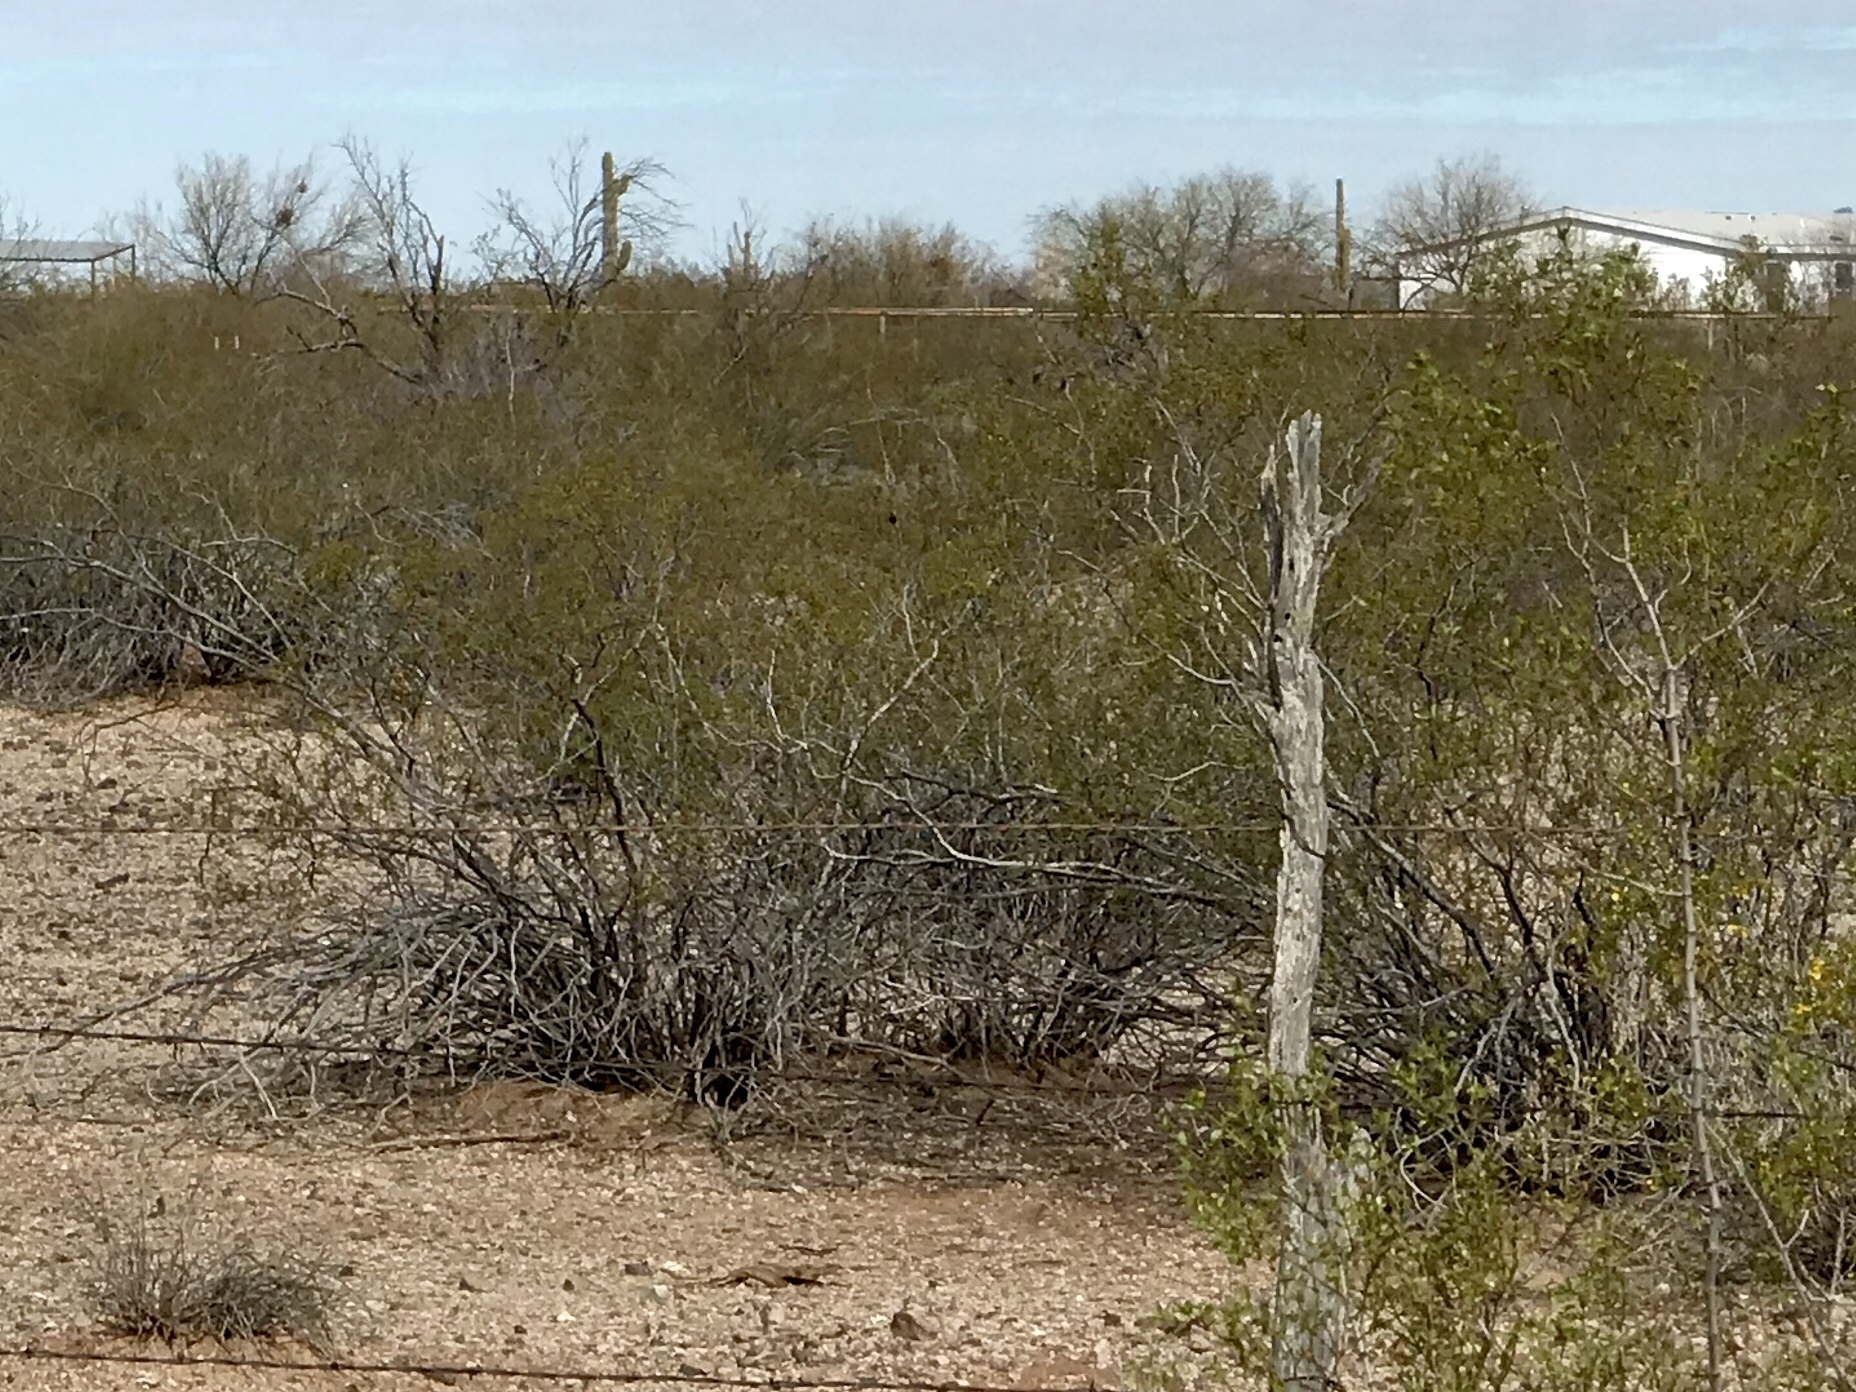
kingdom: Plantae
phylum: Tracheophyta
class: Magnoliopsida
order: Zygophyllales
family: Zygophyllaceae
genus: Larrea
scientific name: Larrea tridentata
